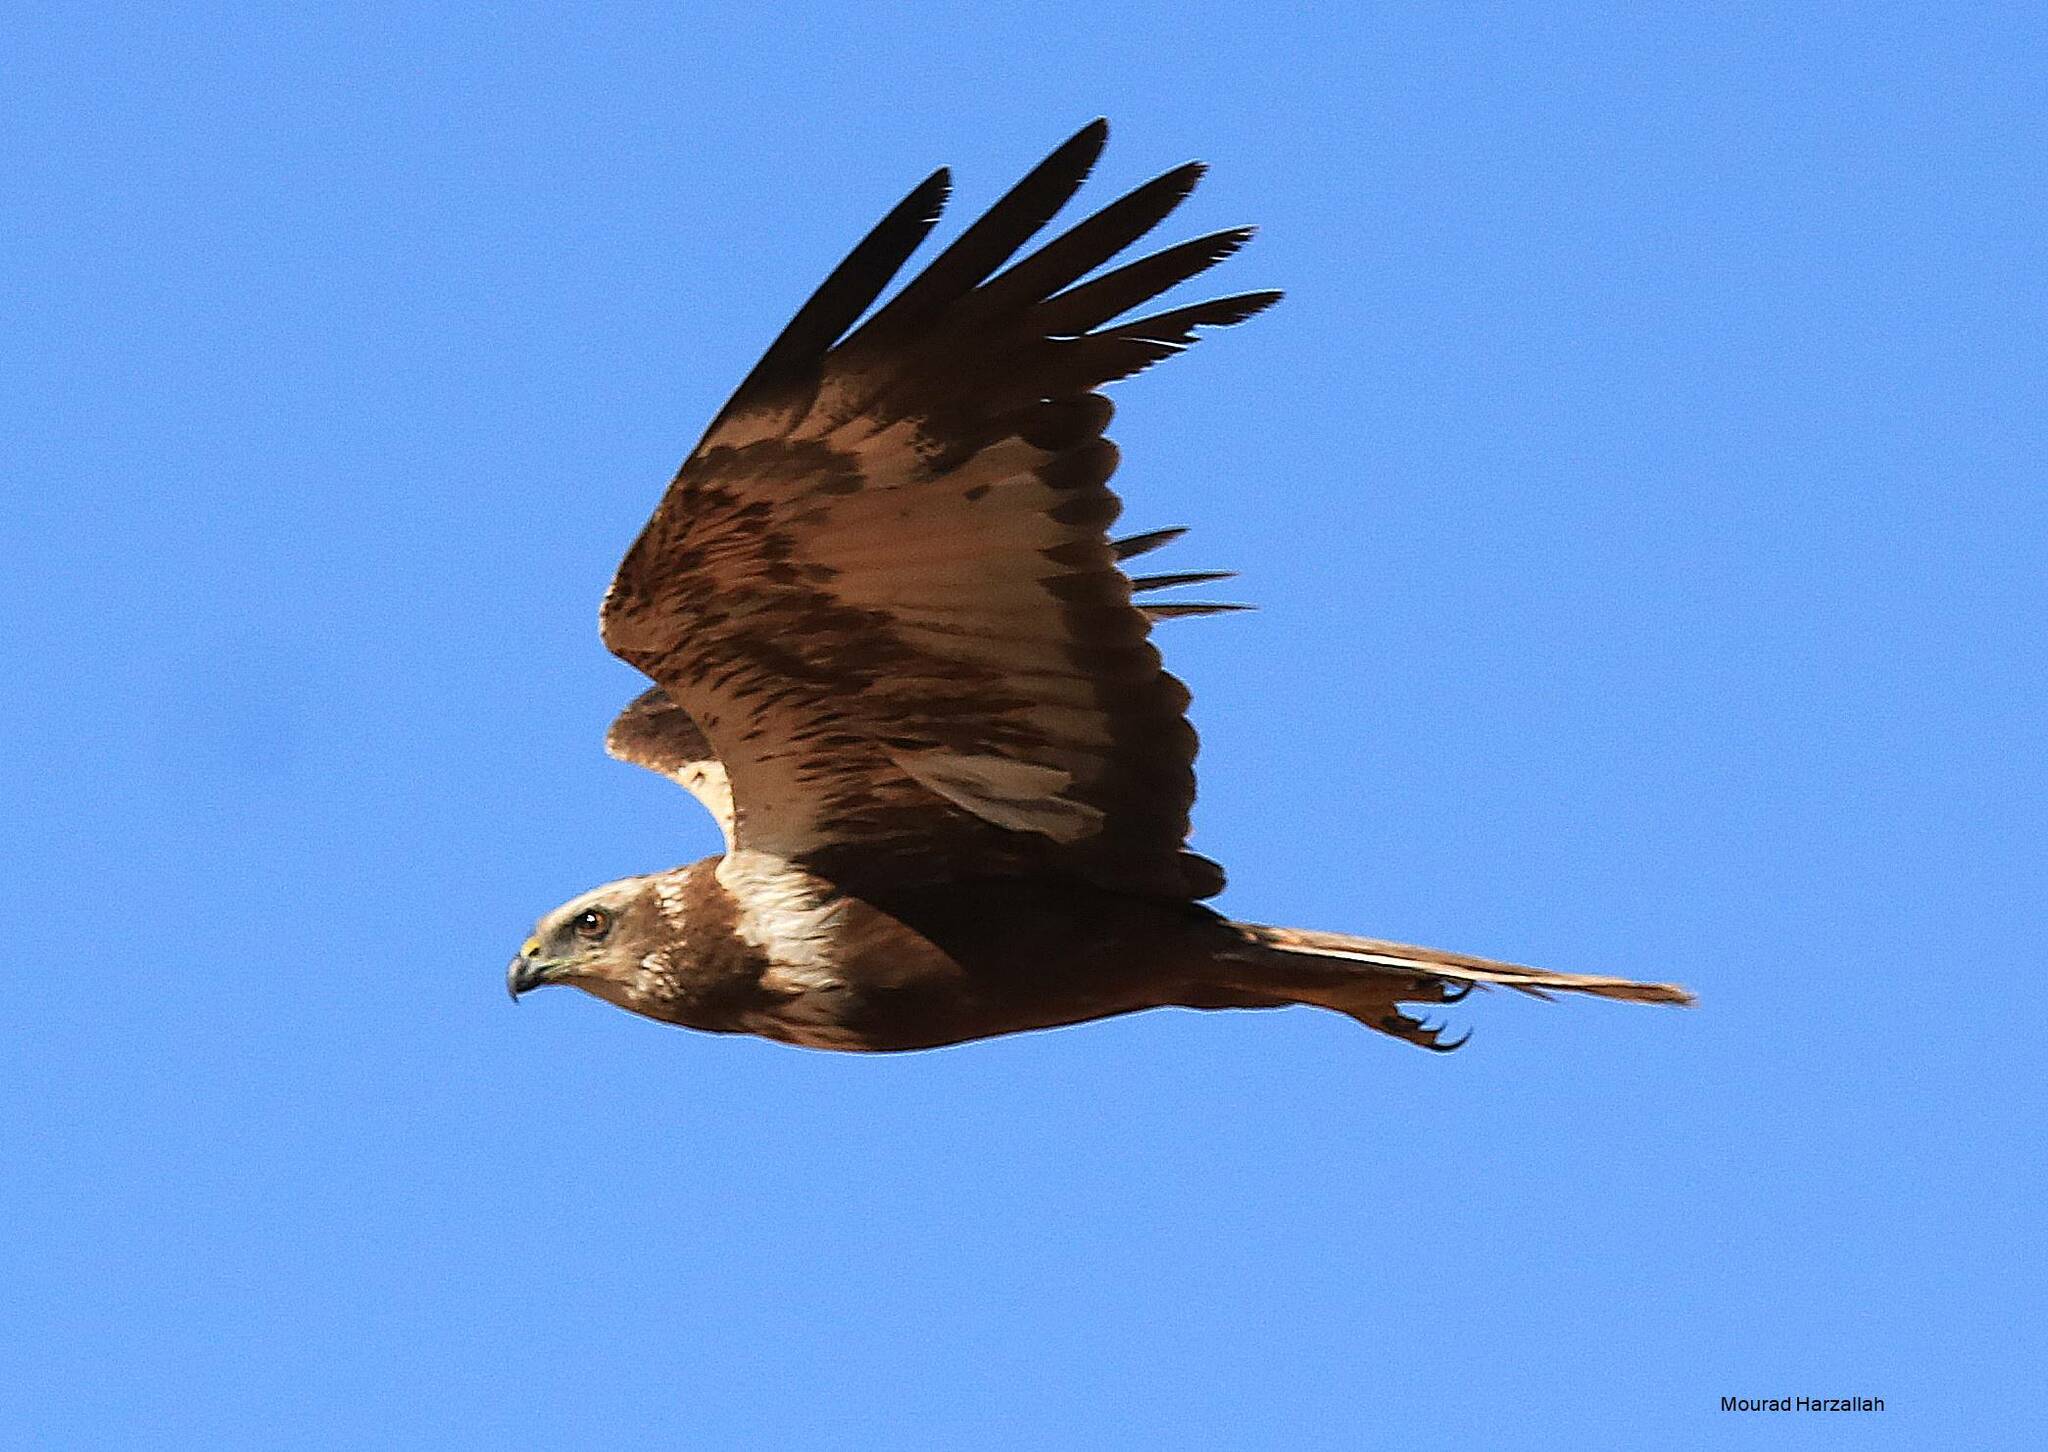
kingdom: Animalia
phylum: Chordata
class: Aves
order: Accipitriformes
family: Accipitridae
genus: Circus
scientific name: Circus aeruginosus
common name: Western marsh harrier
